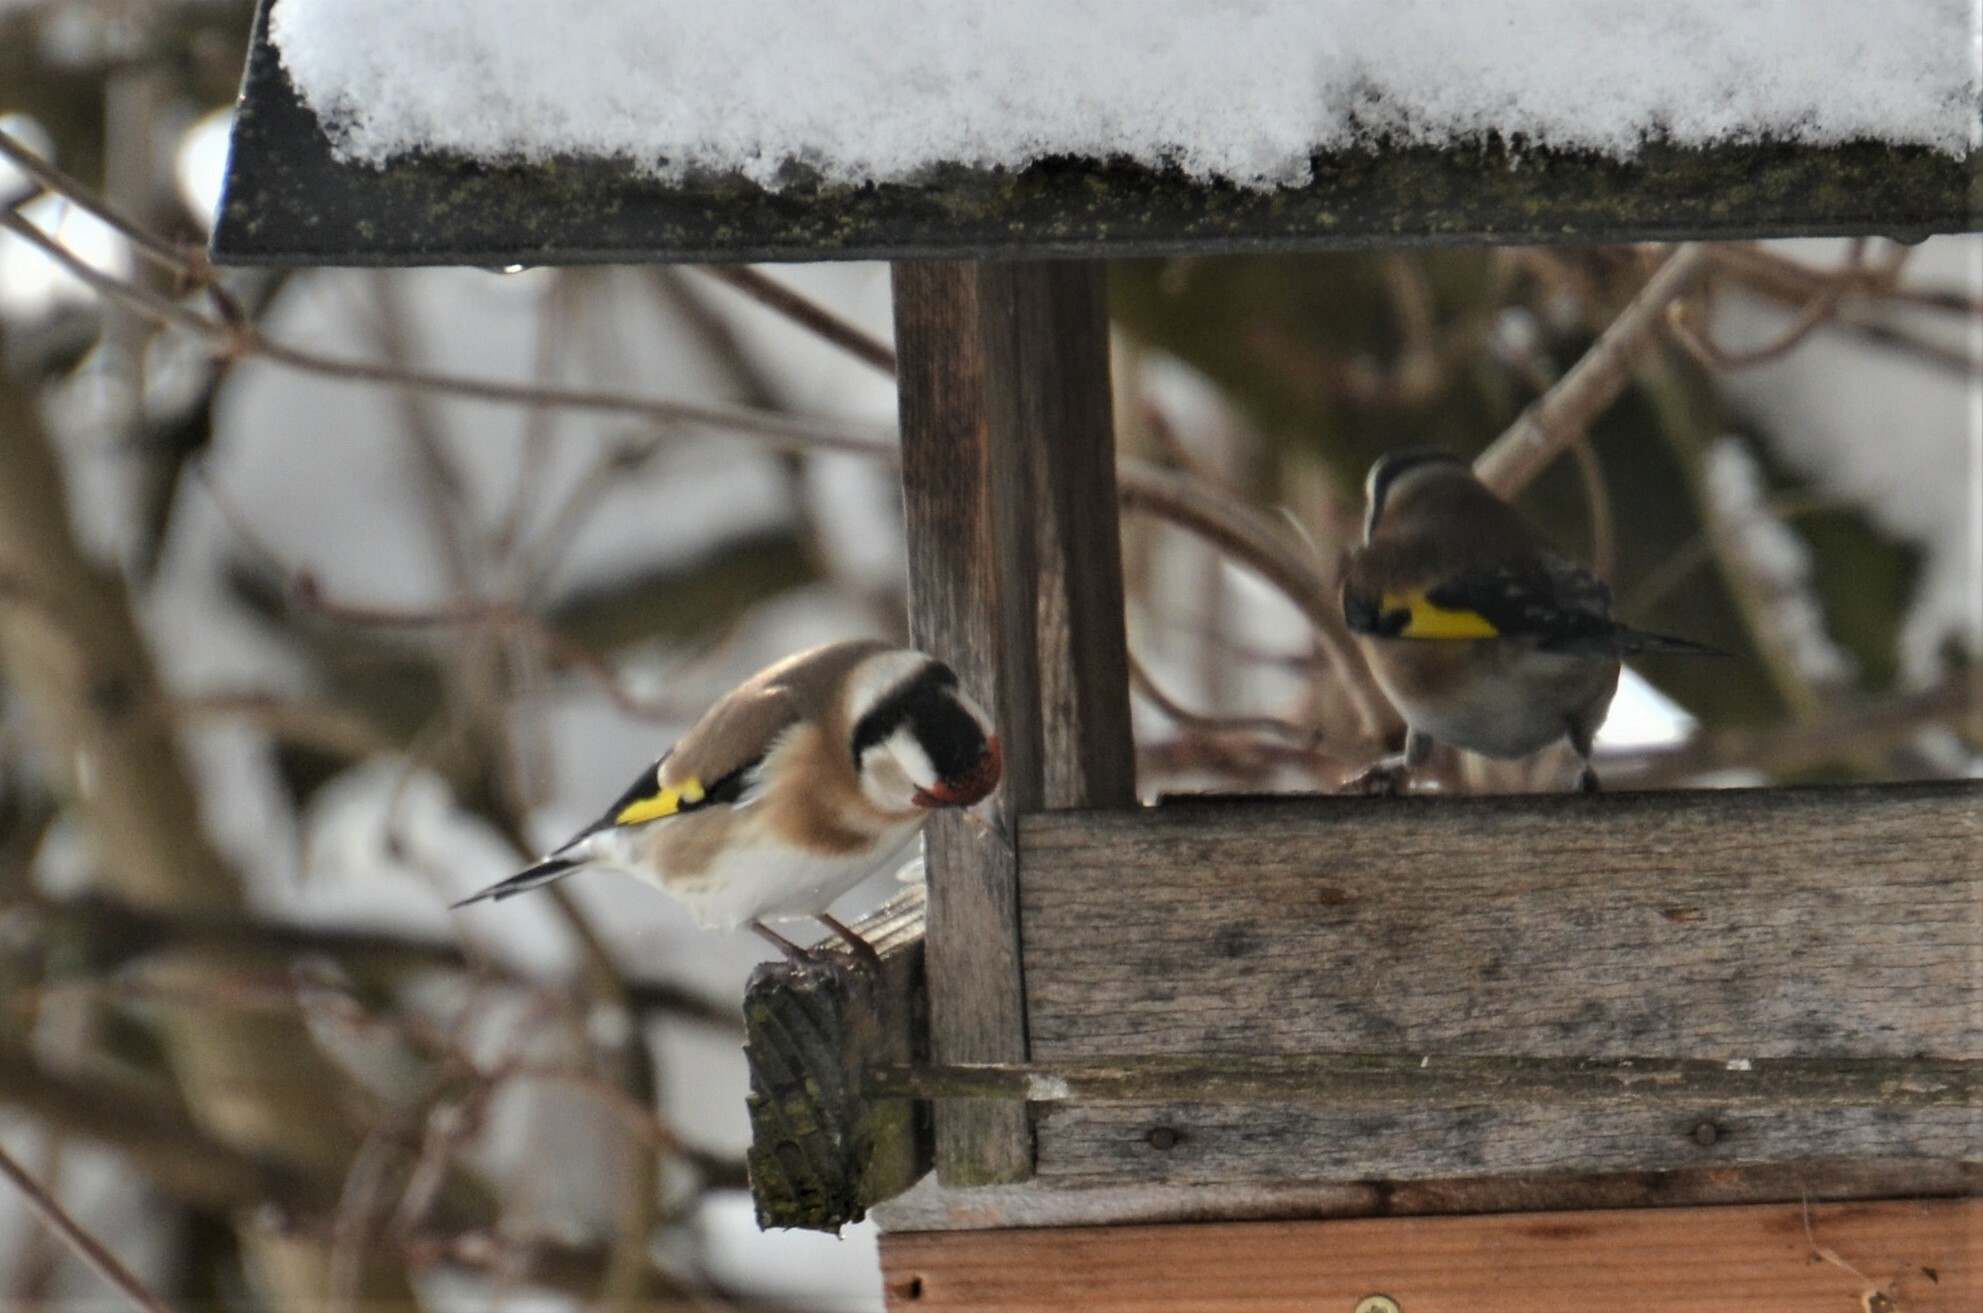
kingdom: Animalia
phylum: Chordata
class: Aves
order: Passeriformes
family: Fringillidae
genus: Carduelis
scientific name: Carduelis carduelis
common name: European goldfinch
